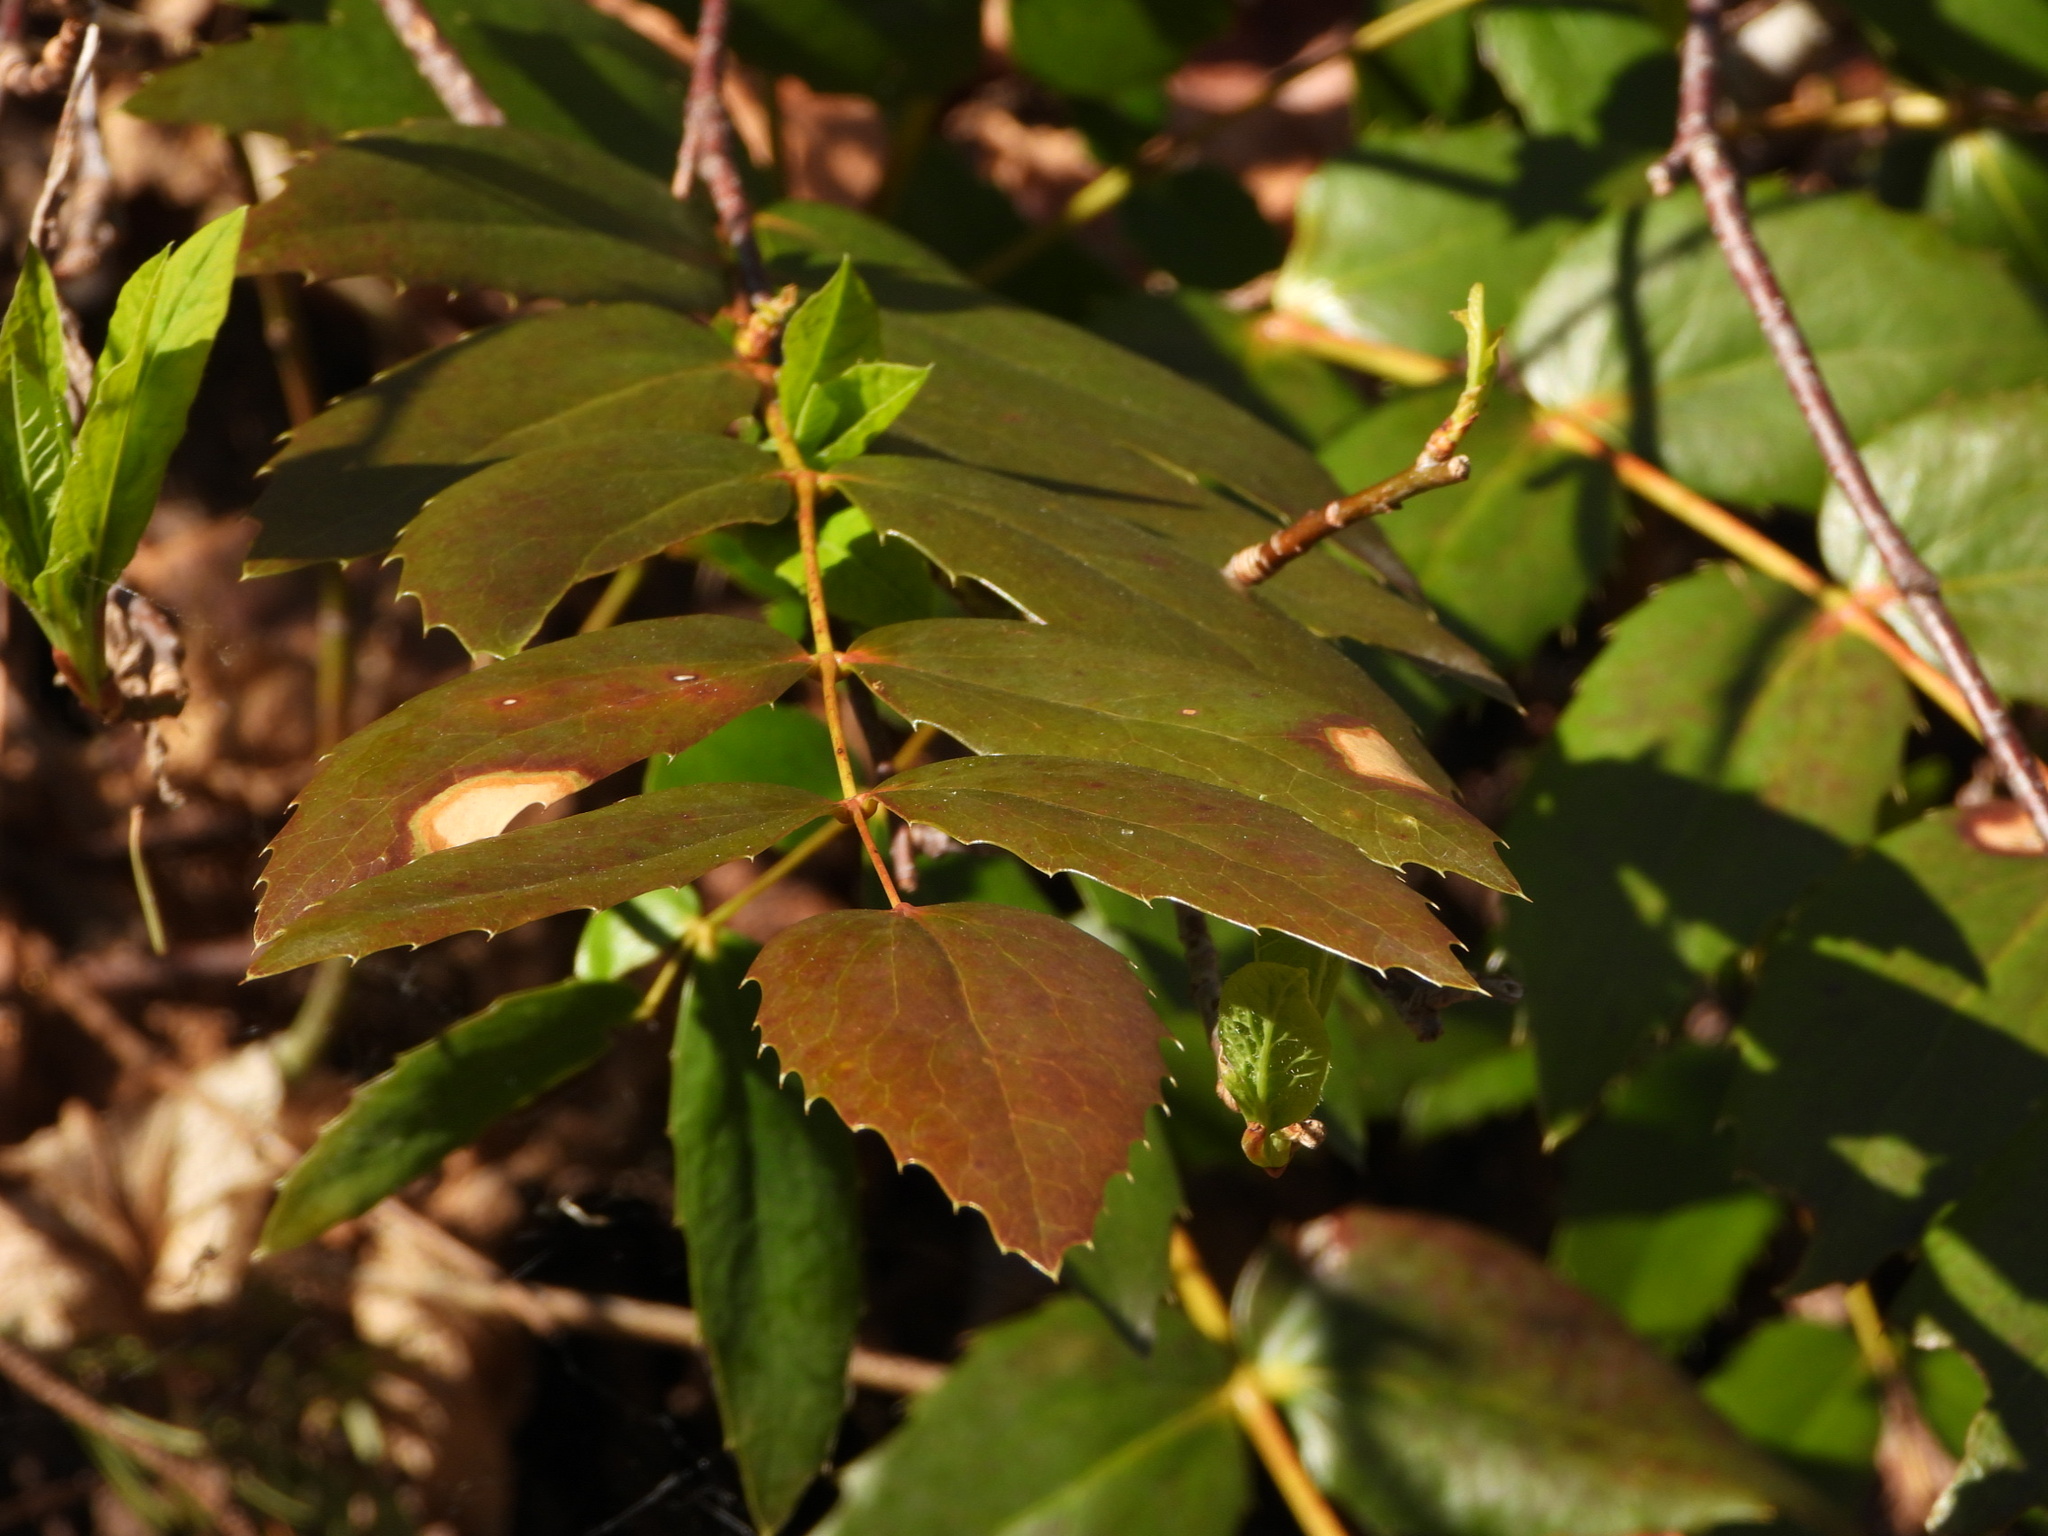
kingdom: Plantae
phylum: Tracheophyta
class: Magnoliopsida
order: Ranunculales
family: Berberidaceae
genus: Mahonia
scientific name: Mahonia nervosa
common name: Cascade oregon-grape
